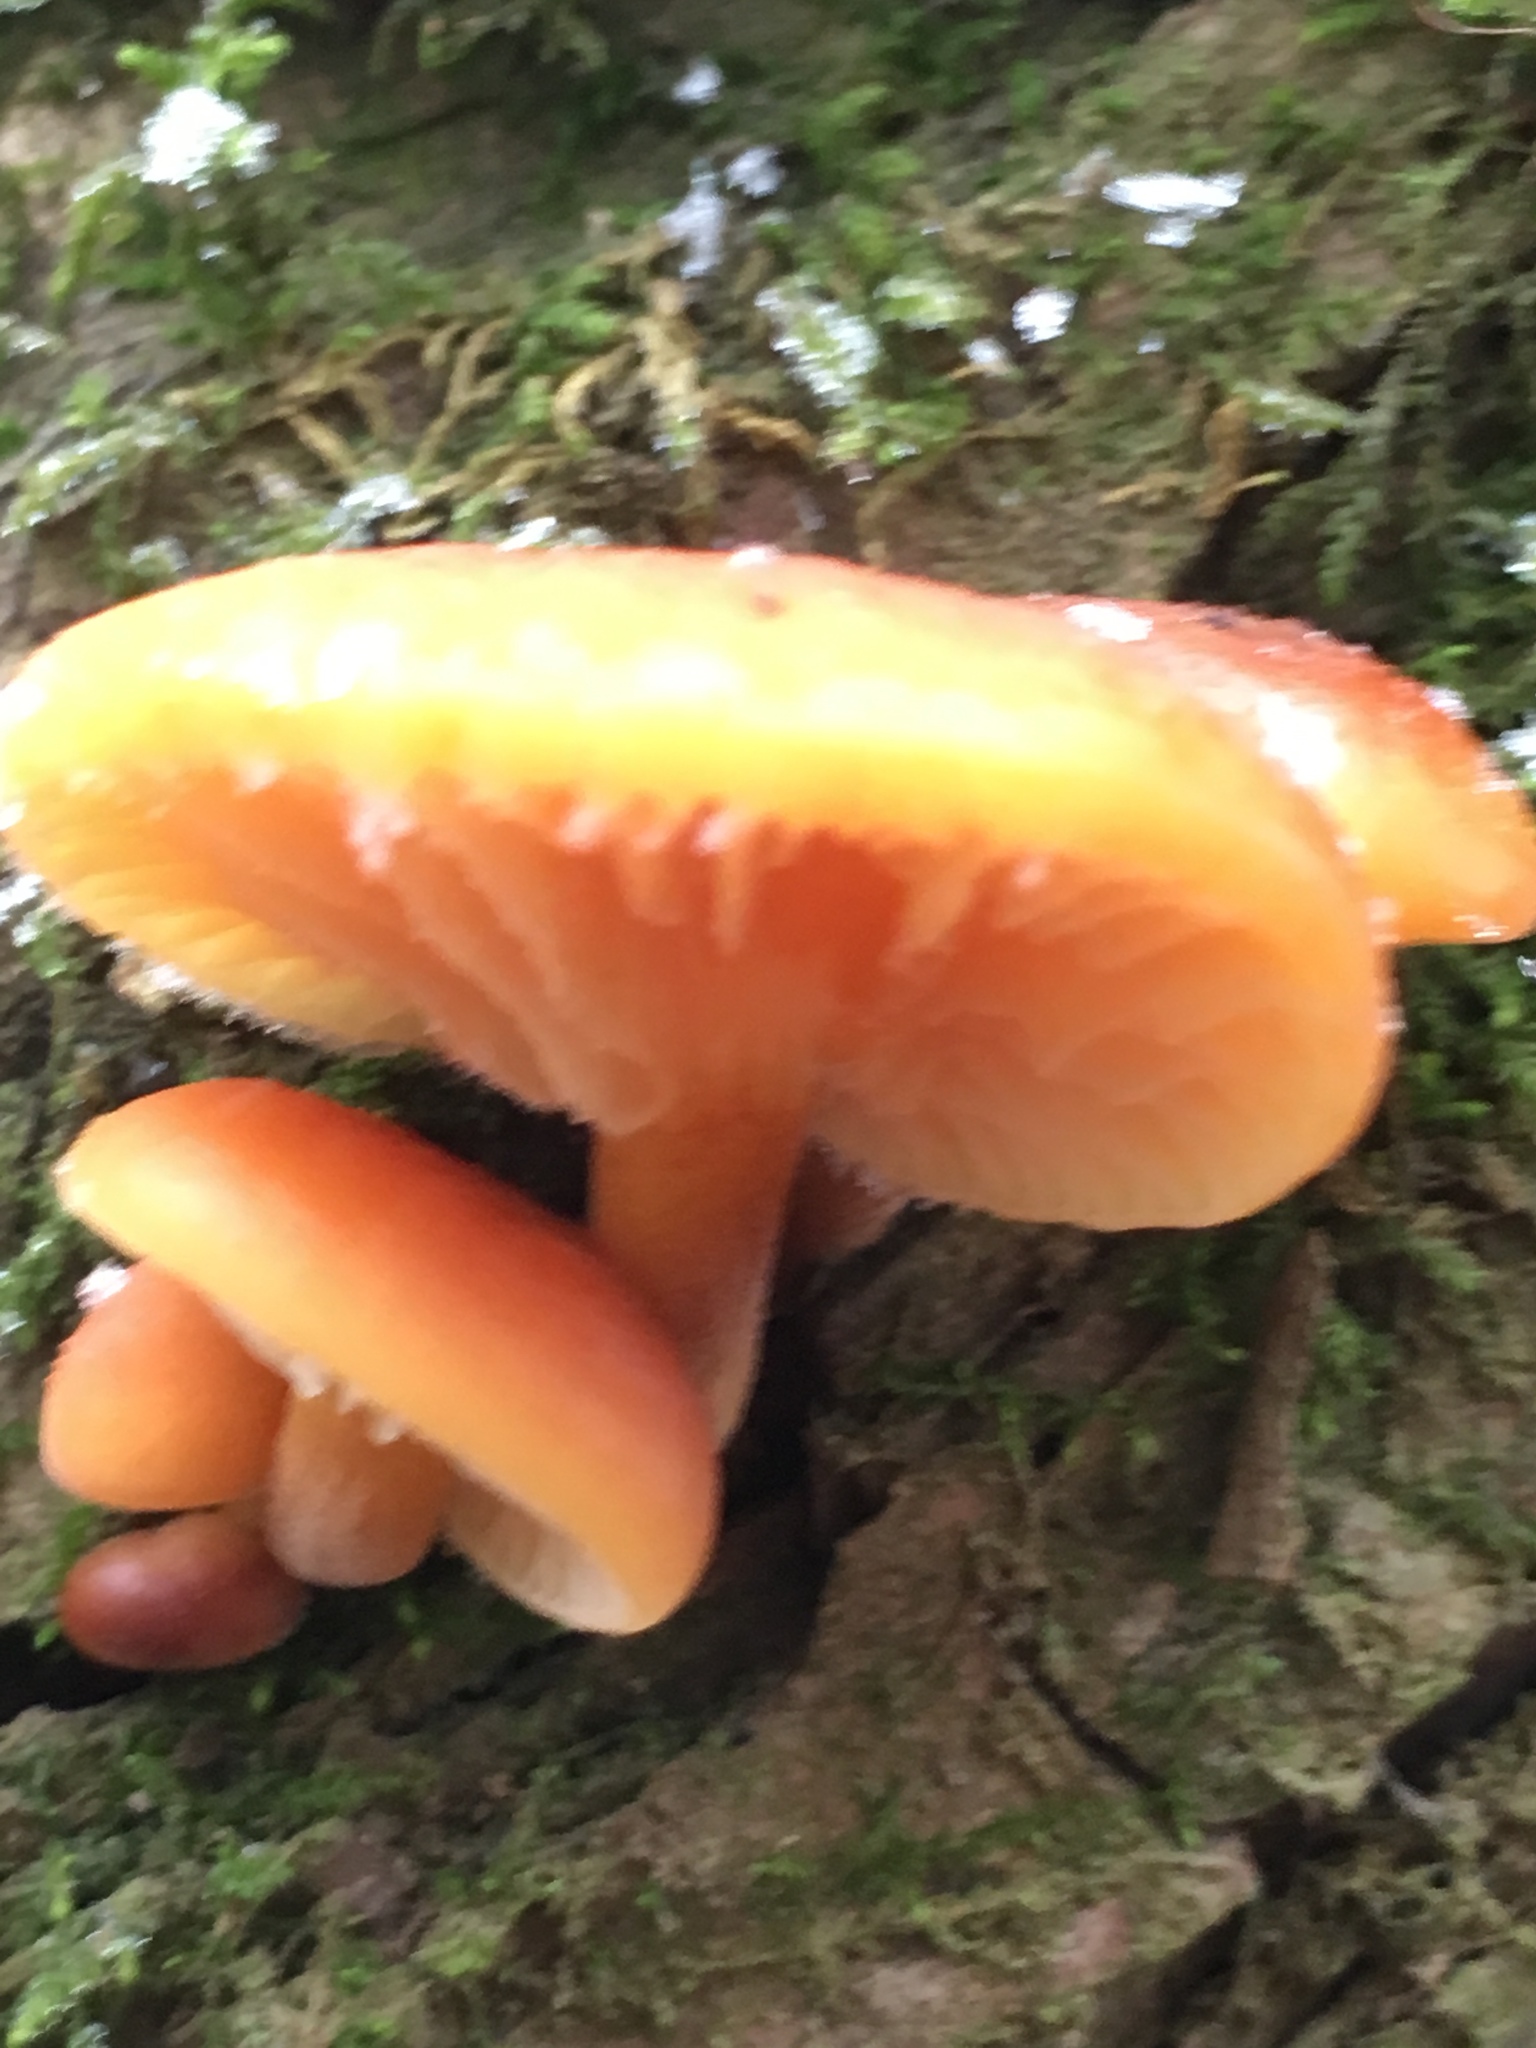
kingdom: Fungi
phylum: Basidiomycota
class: Agaricomycetes
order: Agaricales
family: Physalacriaceae
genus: Flammulina
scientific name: Flammulina
